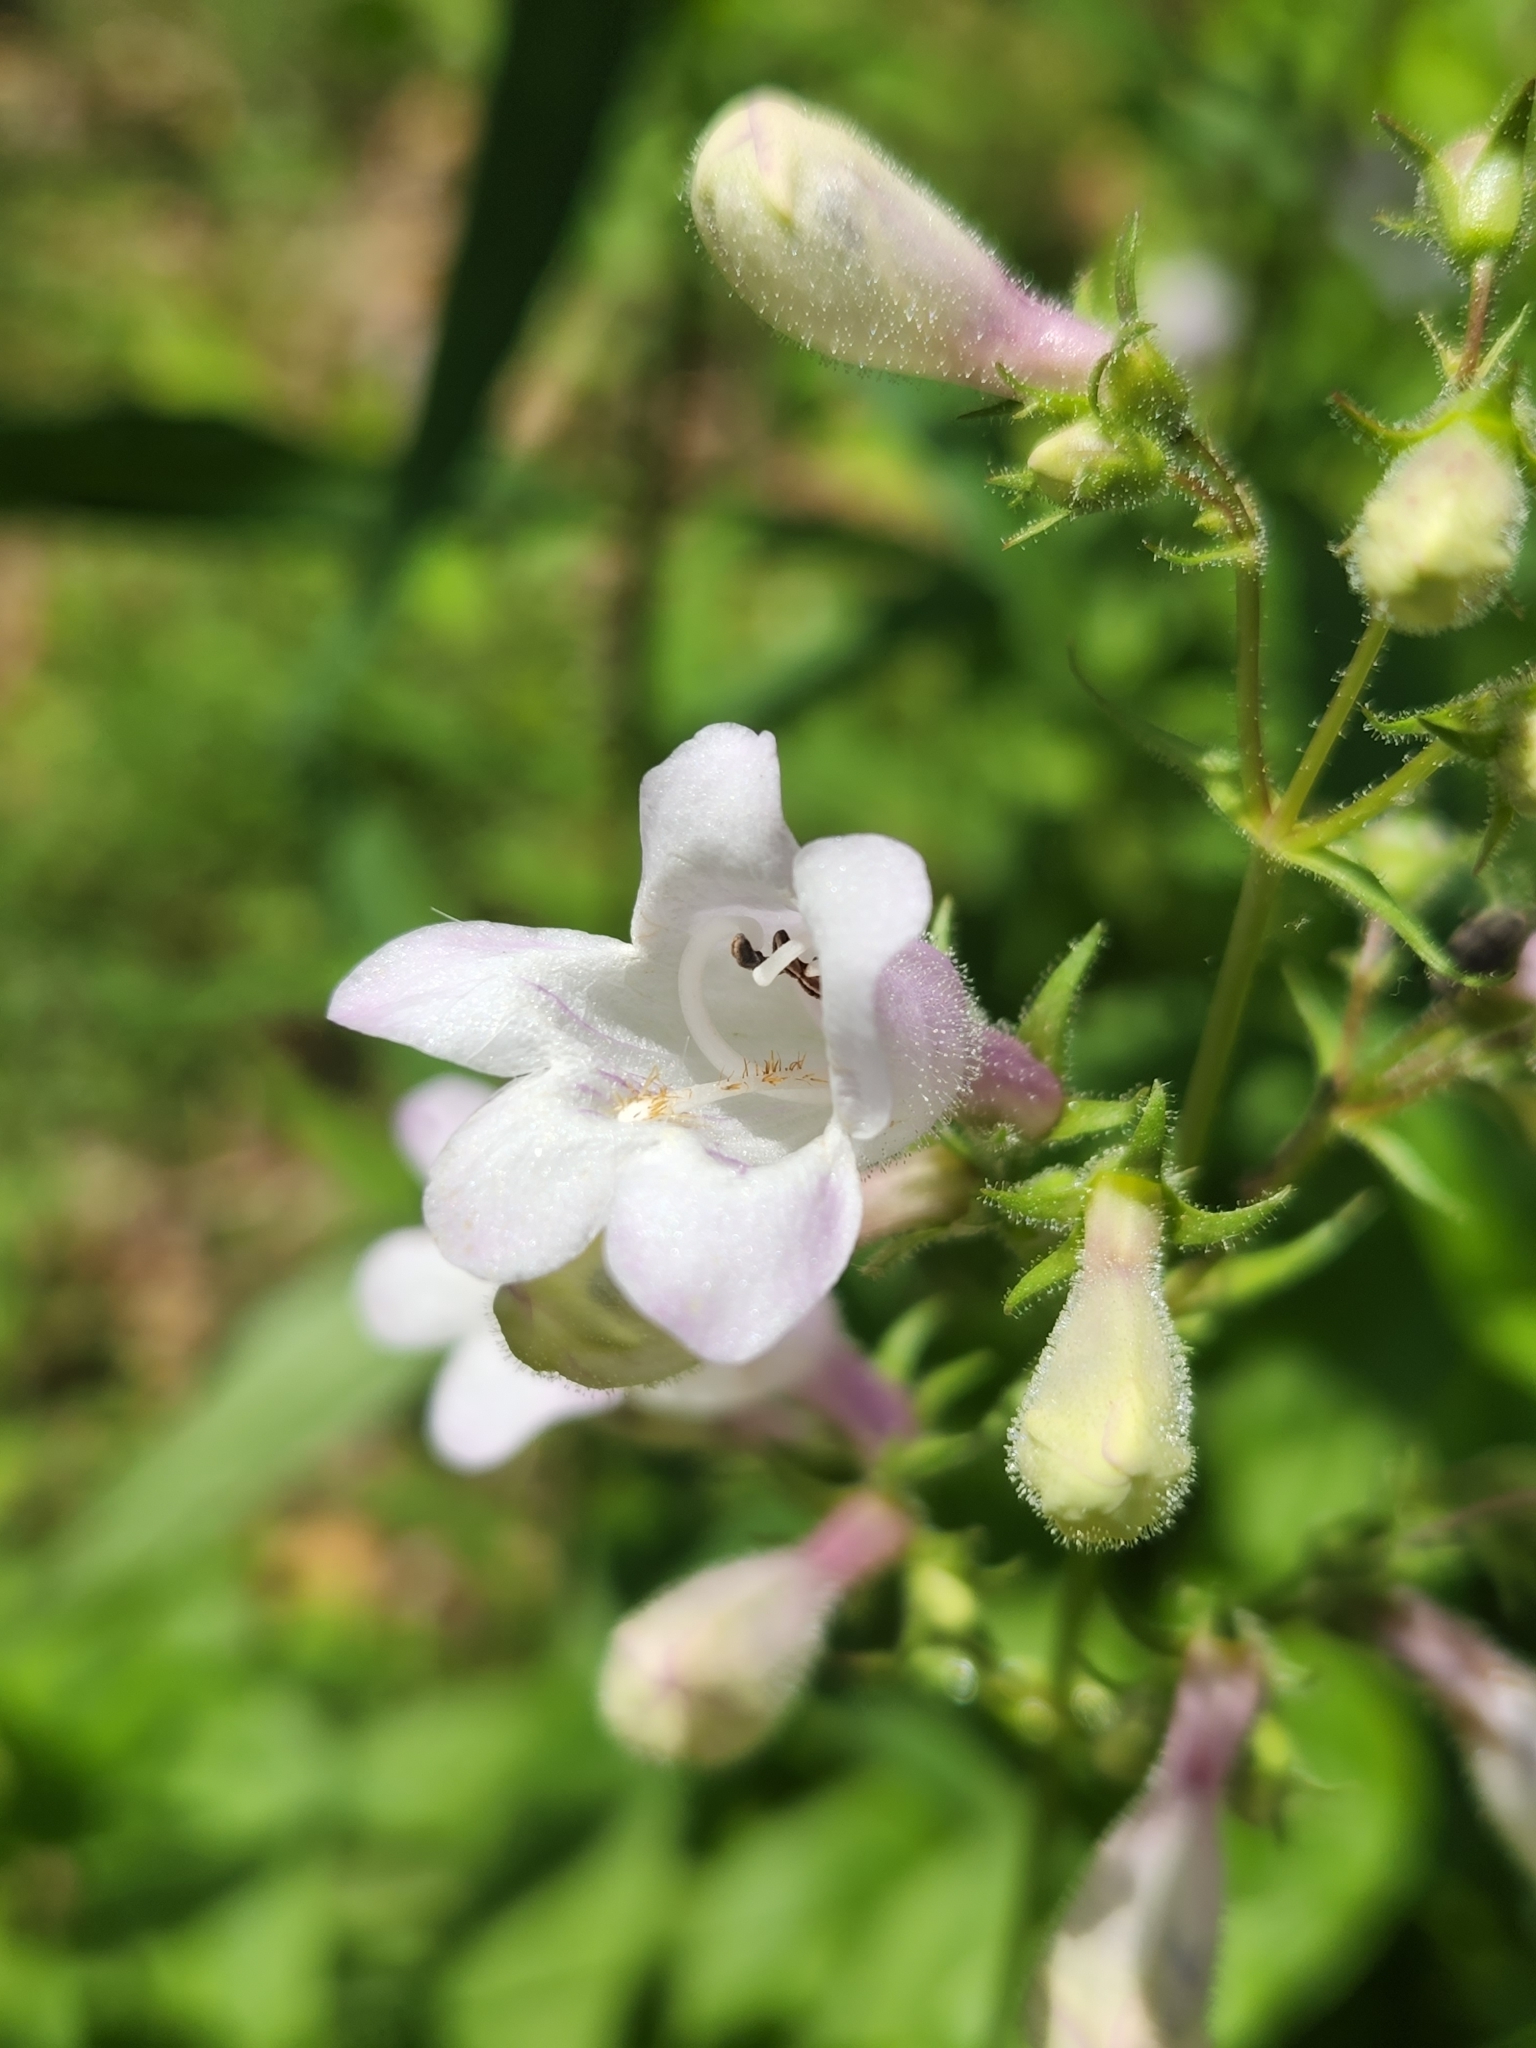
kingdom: Plantae
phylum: Tracheophyta
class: Magnoliopsida
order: Lamiales
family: Plantaginaceae
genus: Penstemon
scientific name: Penstemon calycosus
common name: Long-sepal beardtongue
